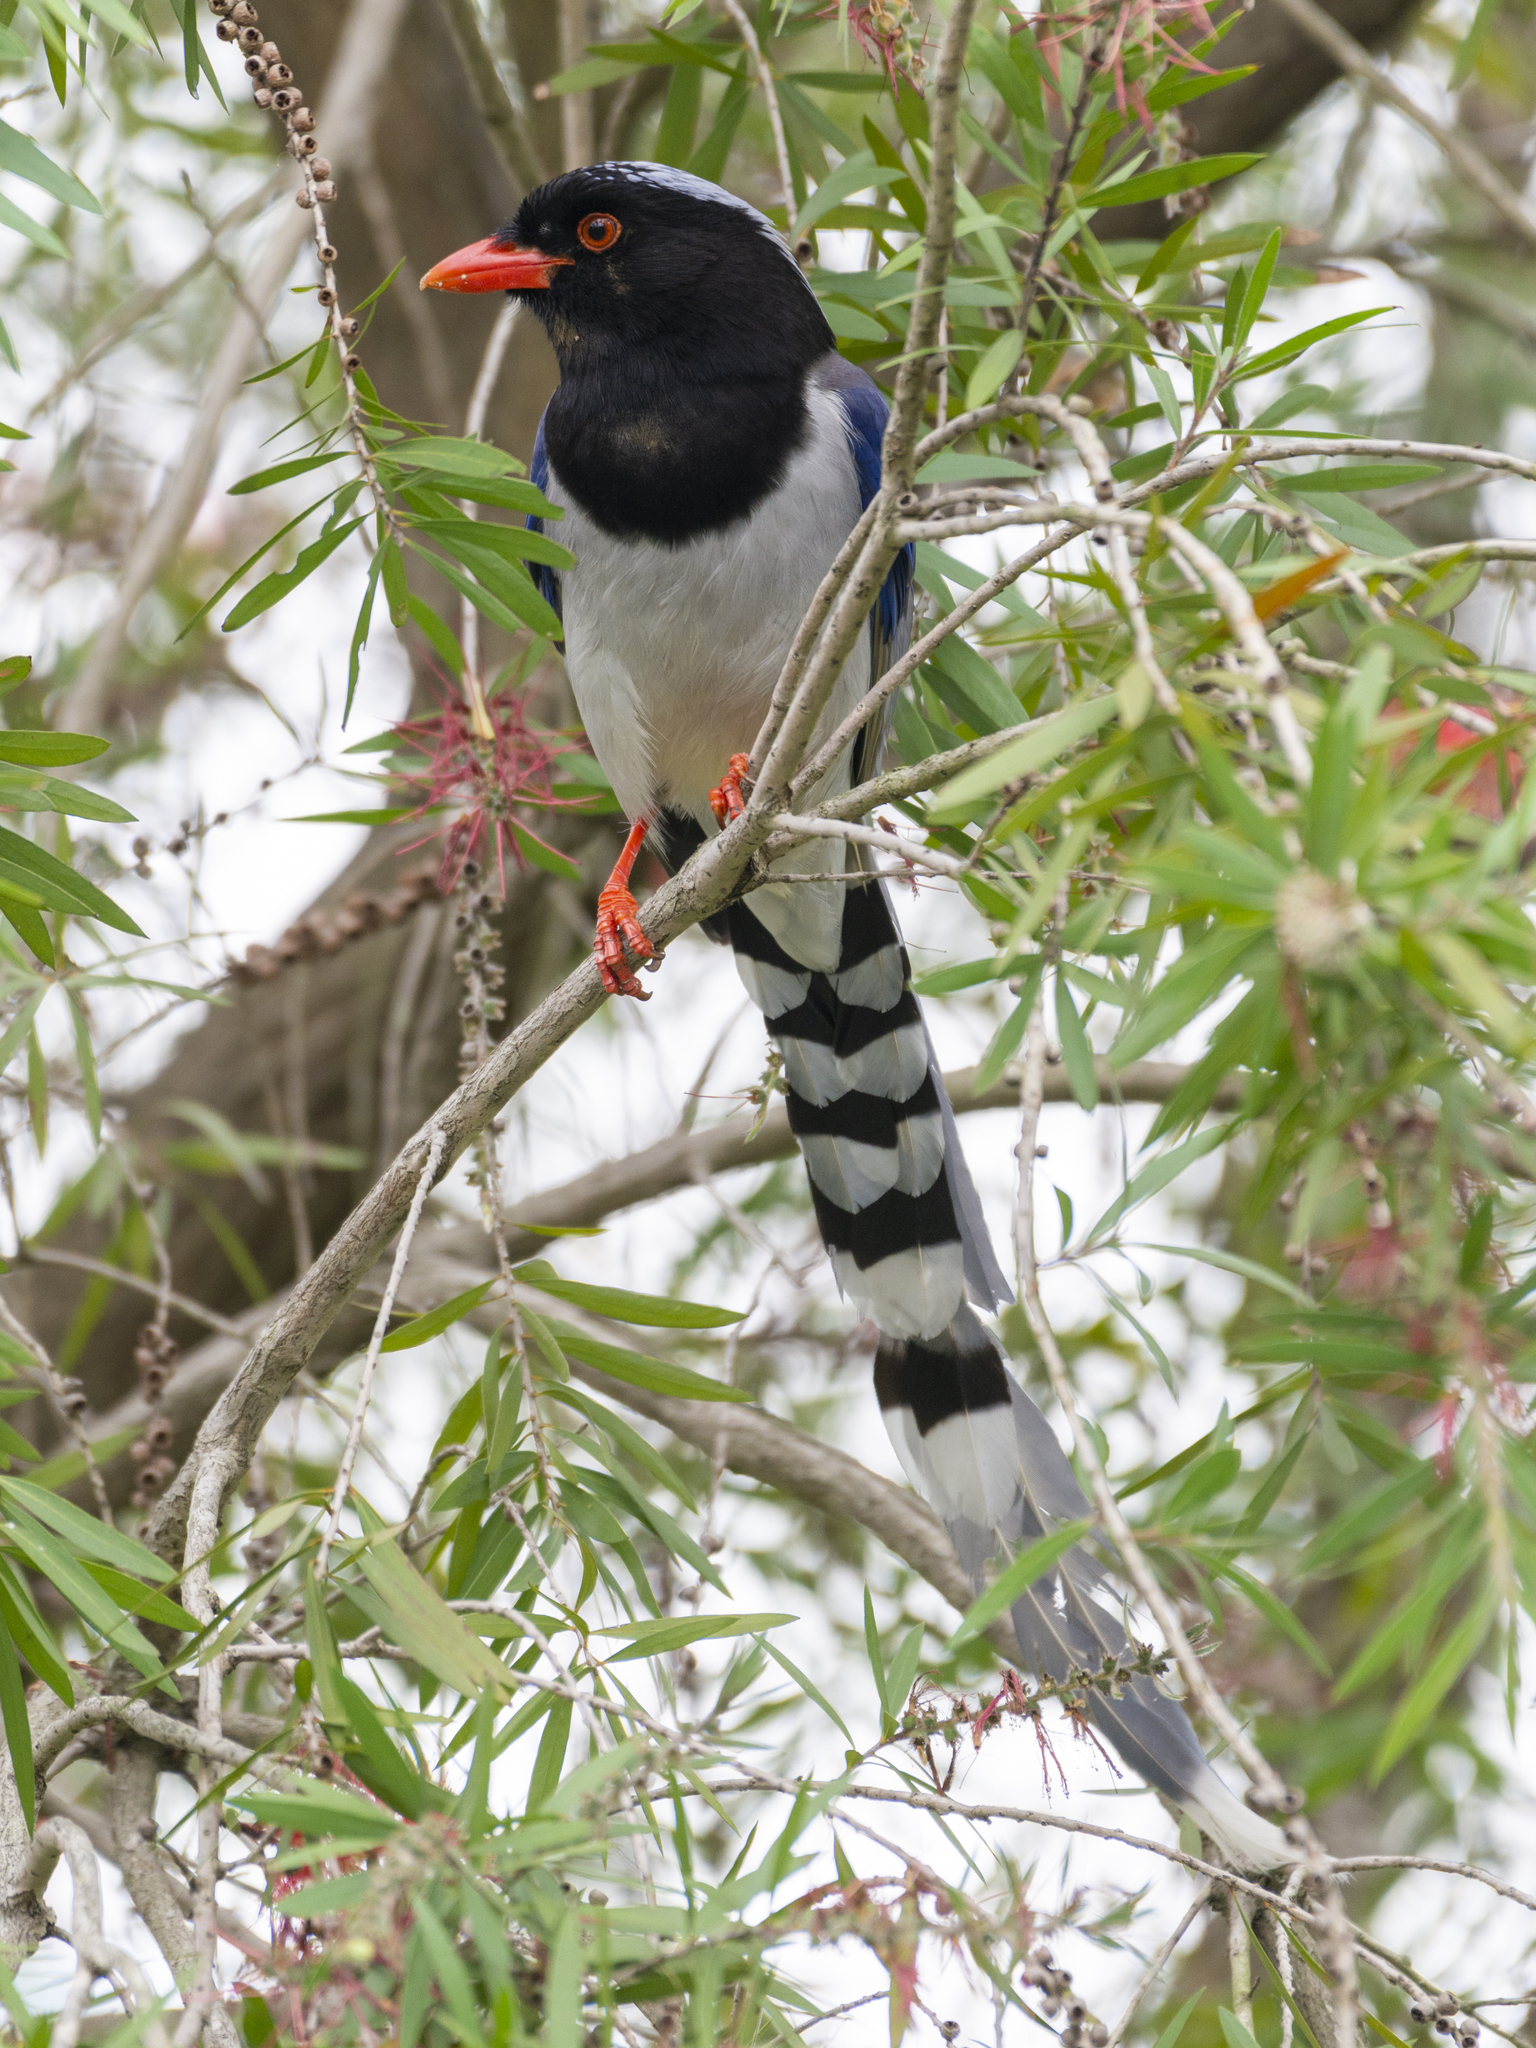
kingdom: Animalia
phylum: Chordata
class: Aves
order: Passeriformes
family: Corvidae
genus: Urocissa
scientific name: Urocissa erythroryncha
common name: Red-billed blue magpie
